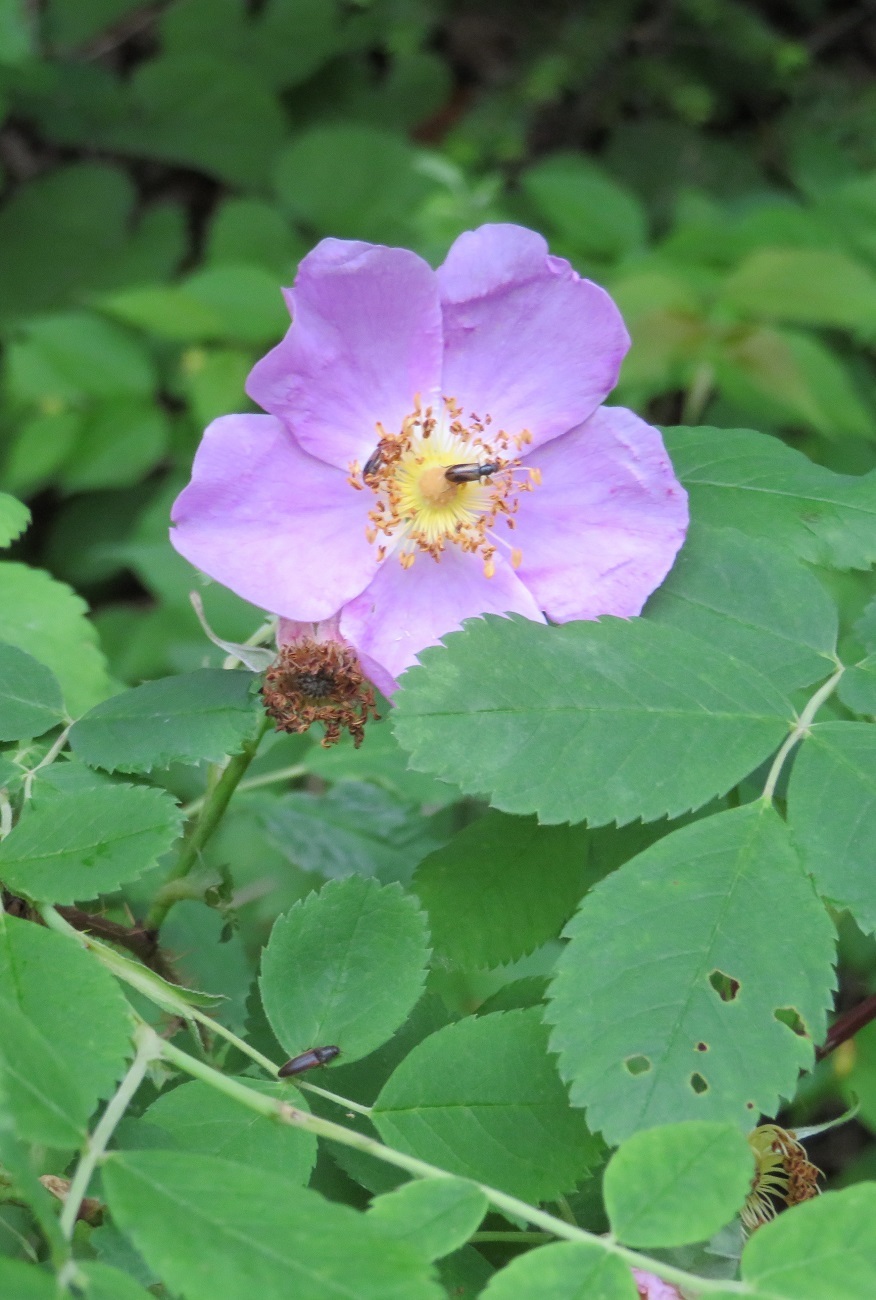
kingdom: Plantae
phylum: Tracheophyta
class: Magnoliopsida
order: Rosales
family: Rosaceae
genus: Rosa
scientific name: Rosa acicularis
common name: Prickly rose
